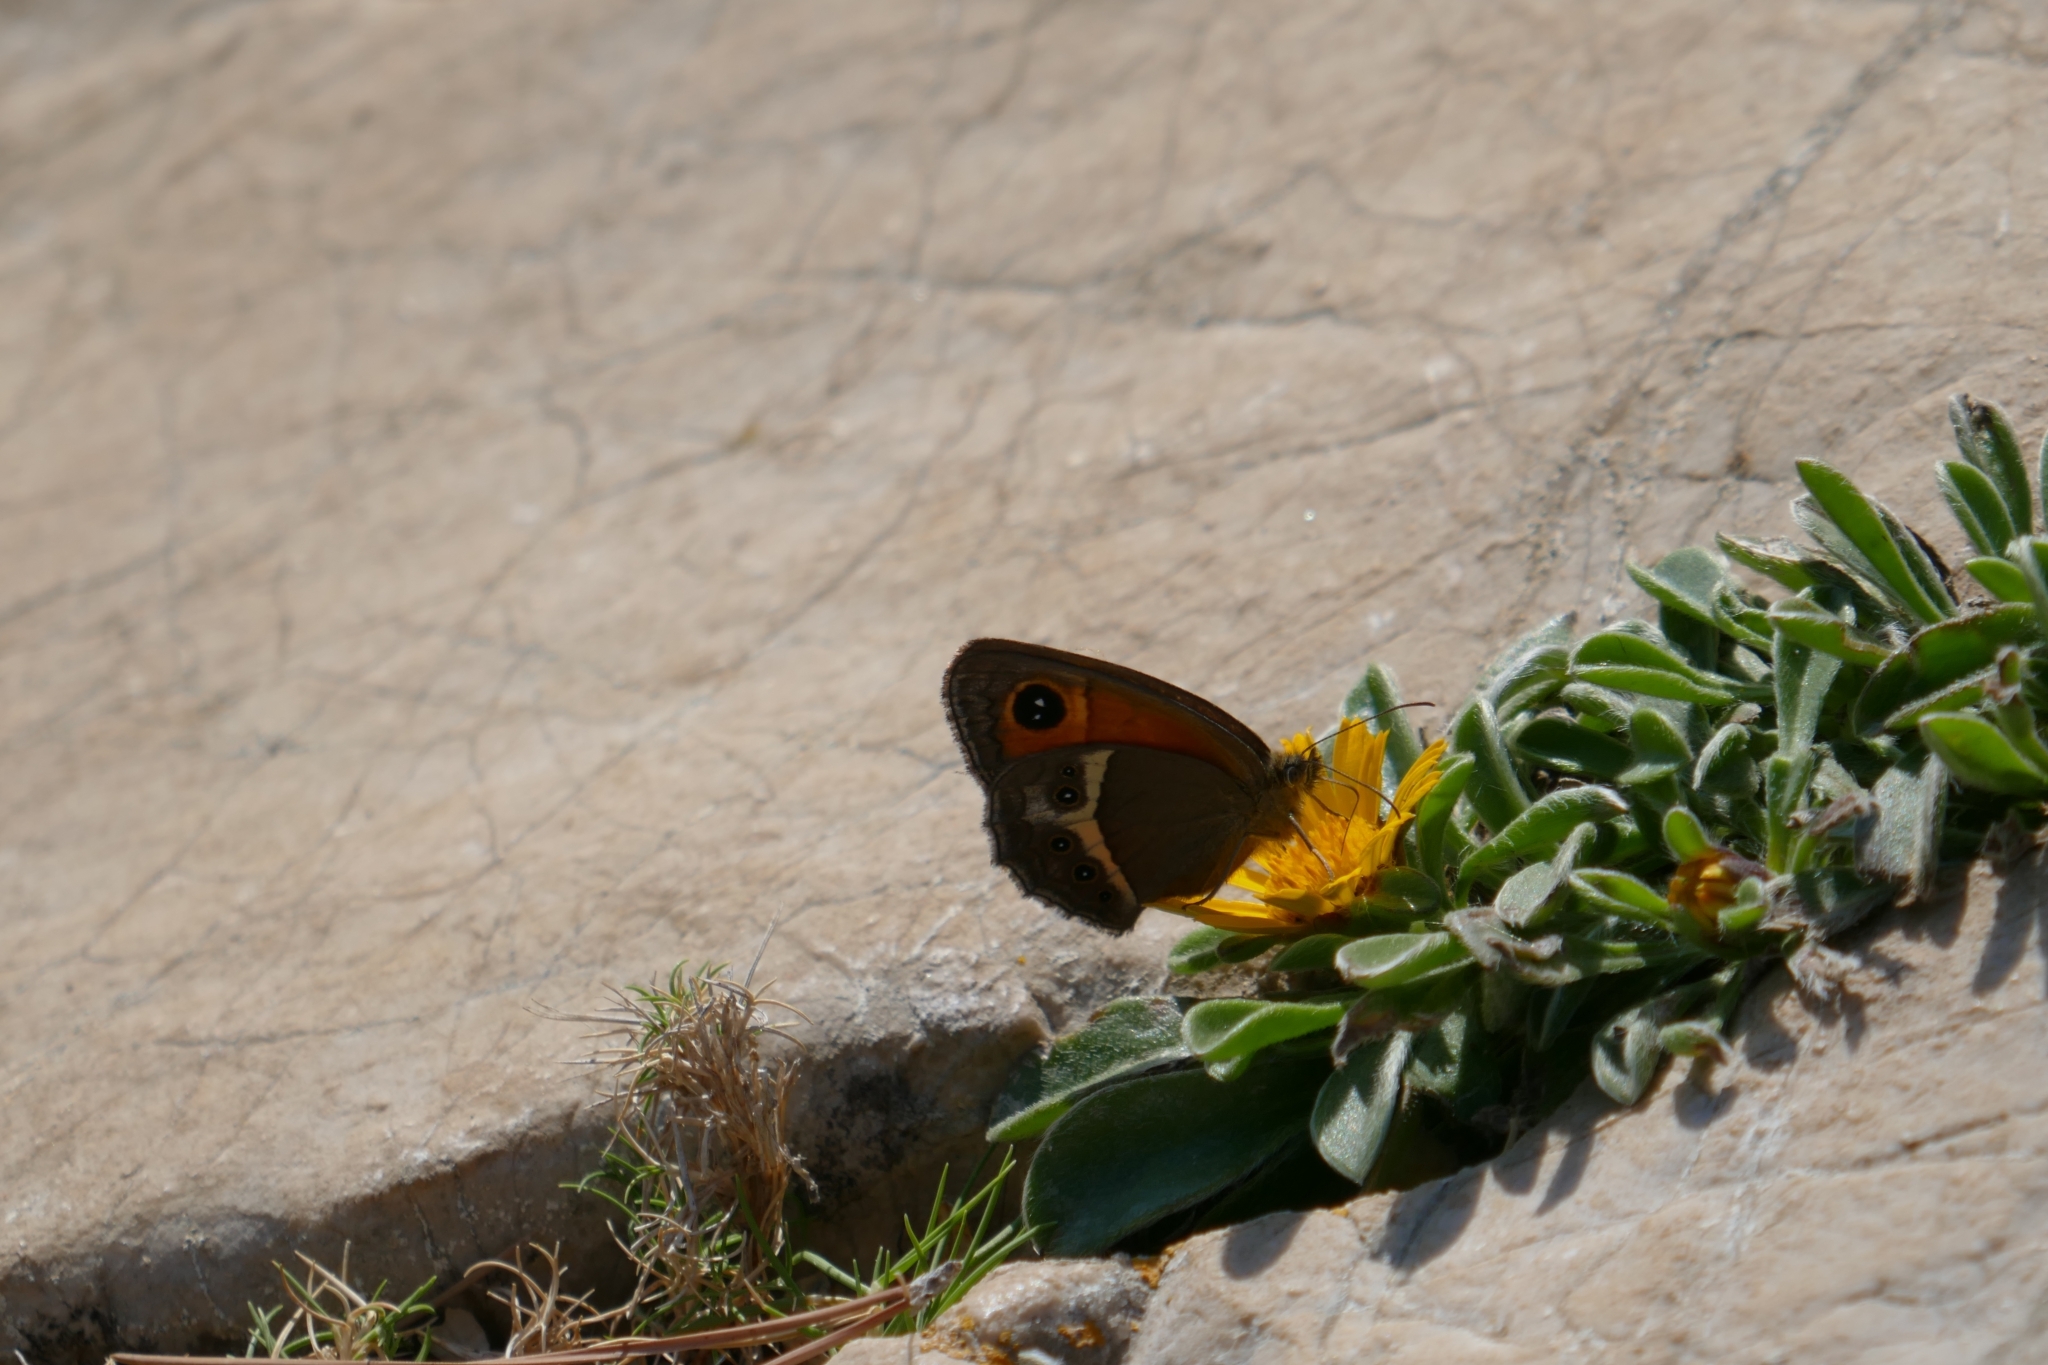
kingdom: Animalia
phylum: Arthropoda
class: Insecta
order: Lepidoptera
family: Nymphalidae
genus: Pyronia
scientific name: Pyronia bathseba
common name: Spanish gatekeeper
